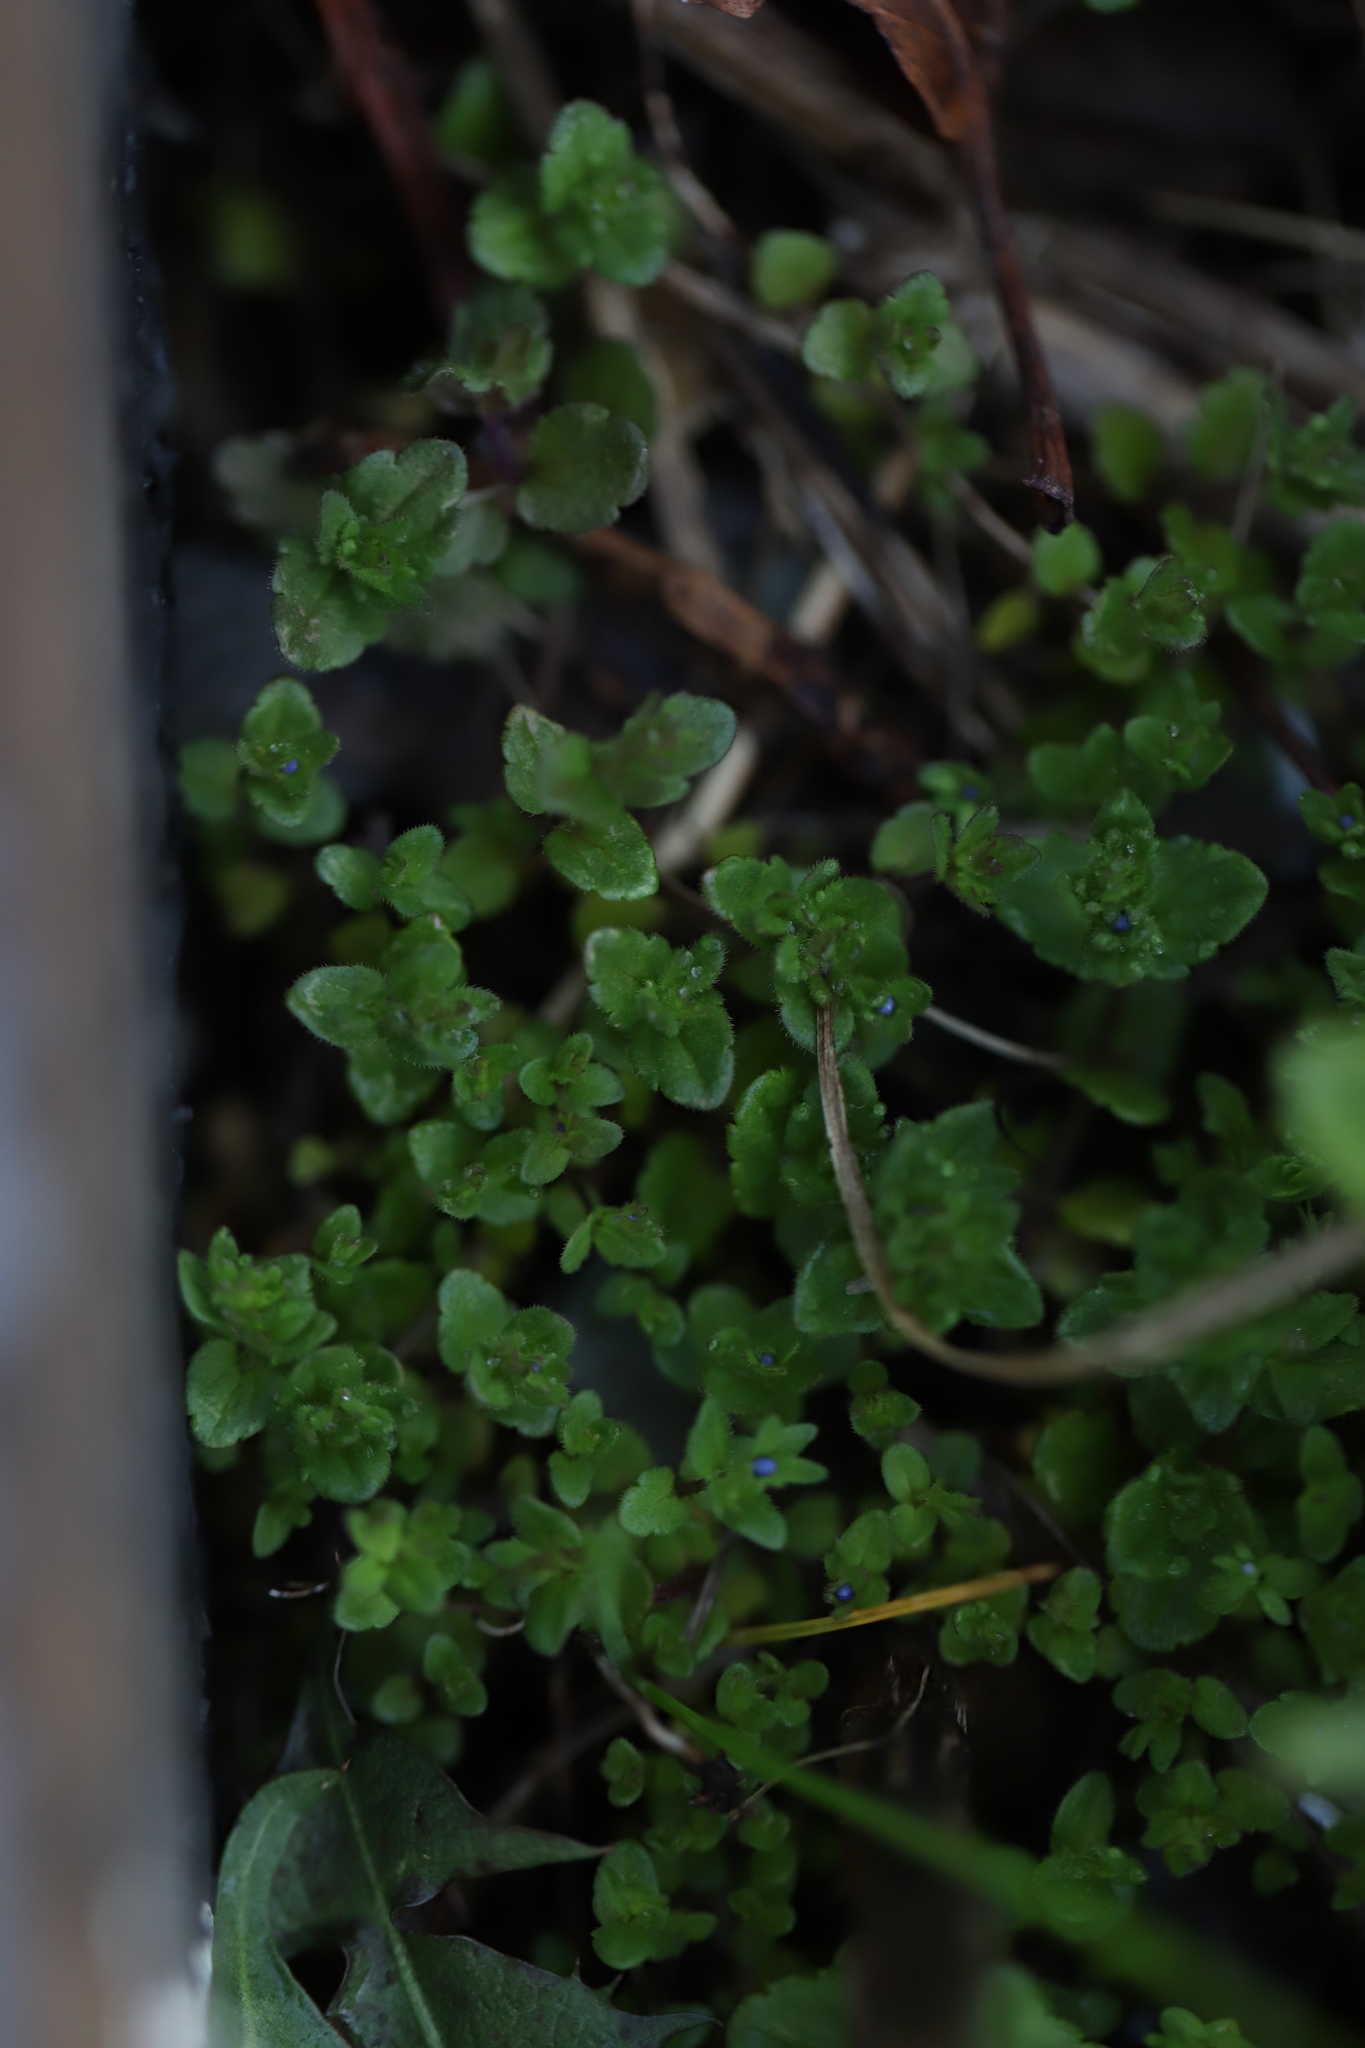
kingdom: Plantae
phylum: Tracheophyta
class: Magnoliopsida
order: Lamiales
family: Plantaginaceae
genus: Veronica
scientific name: Veronica arvensis
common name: Corn speedwell
